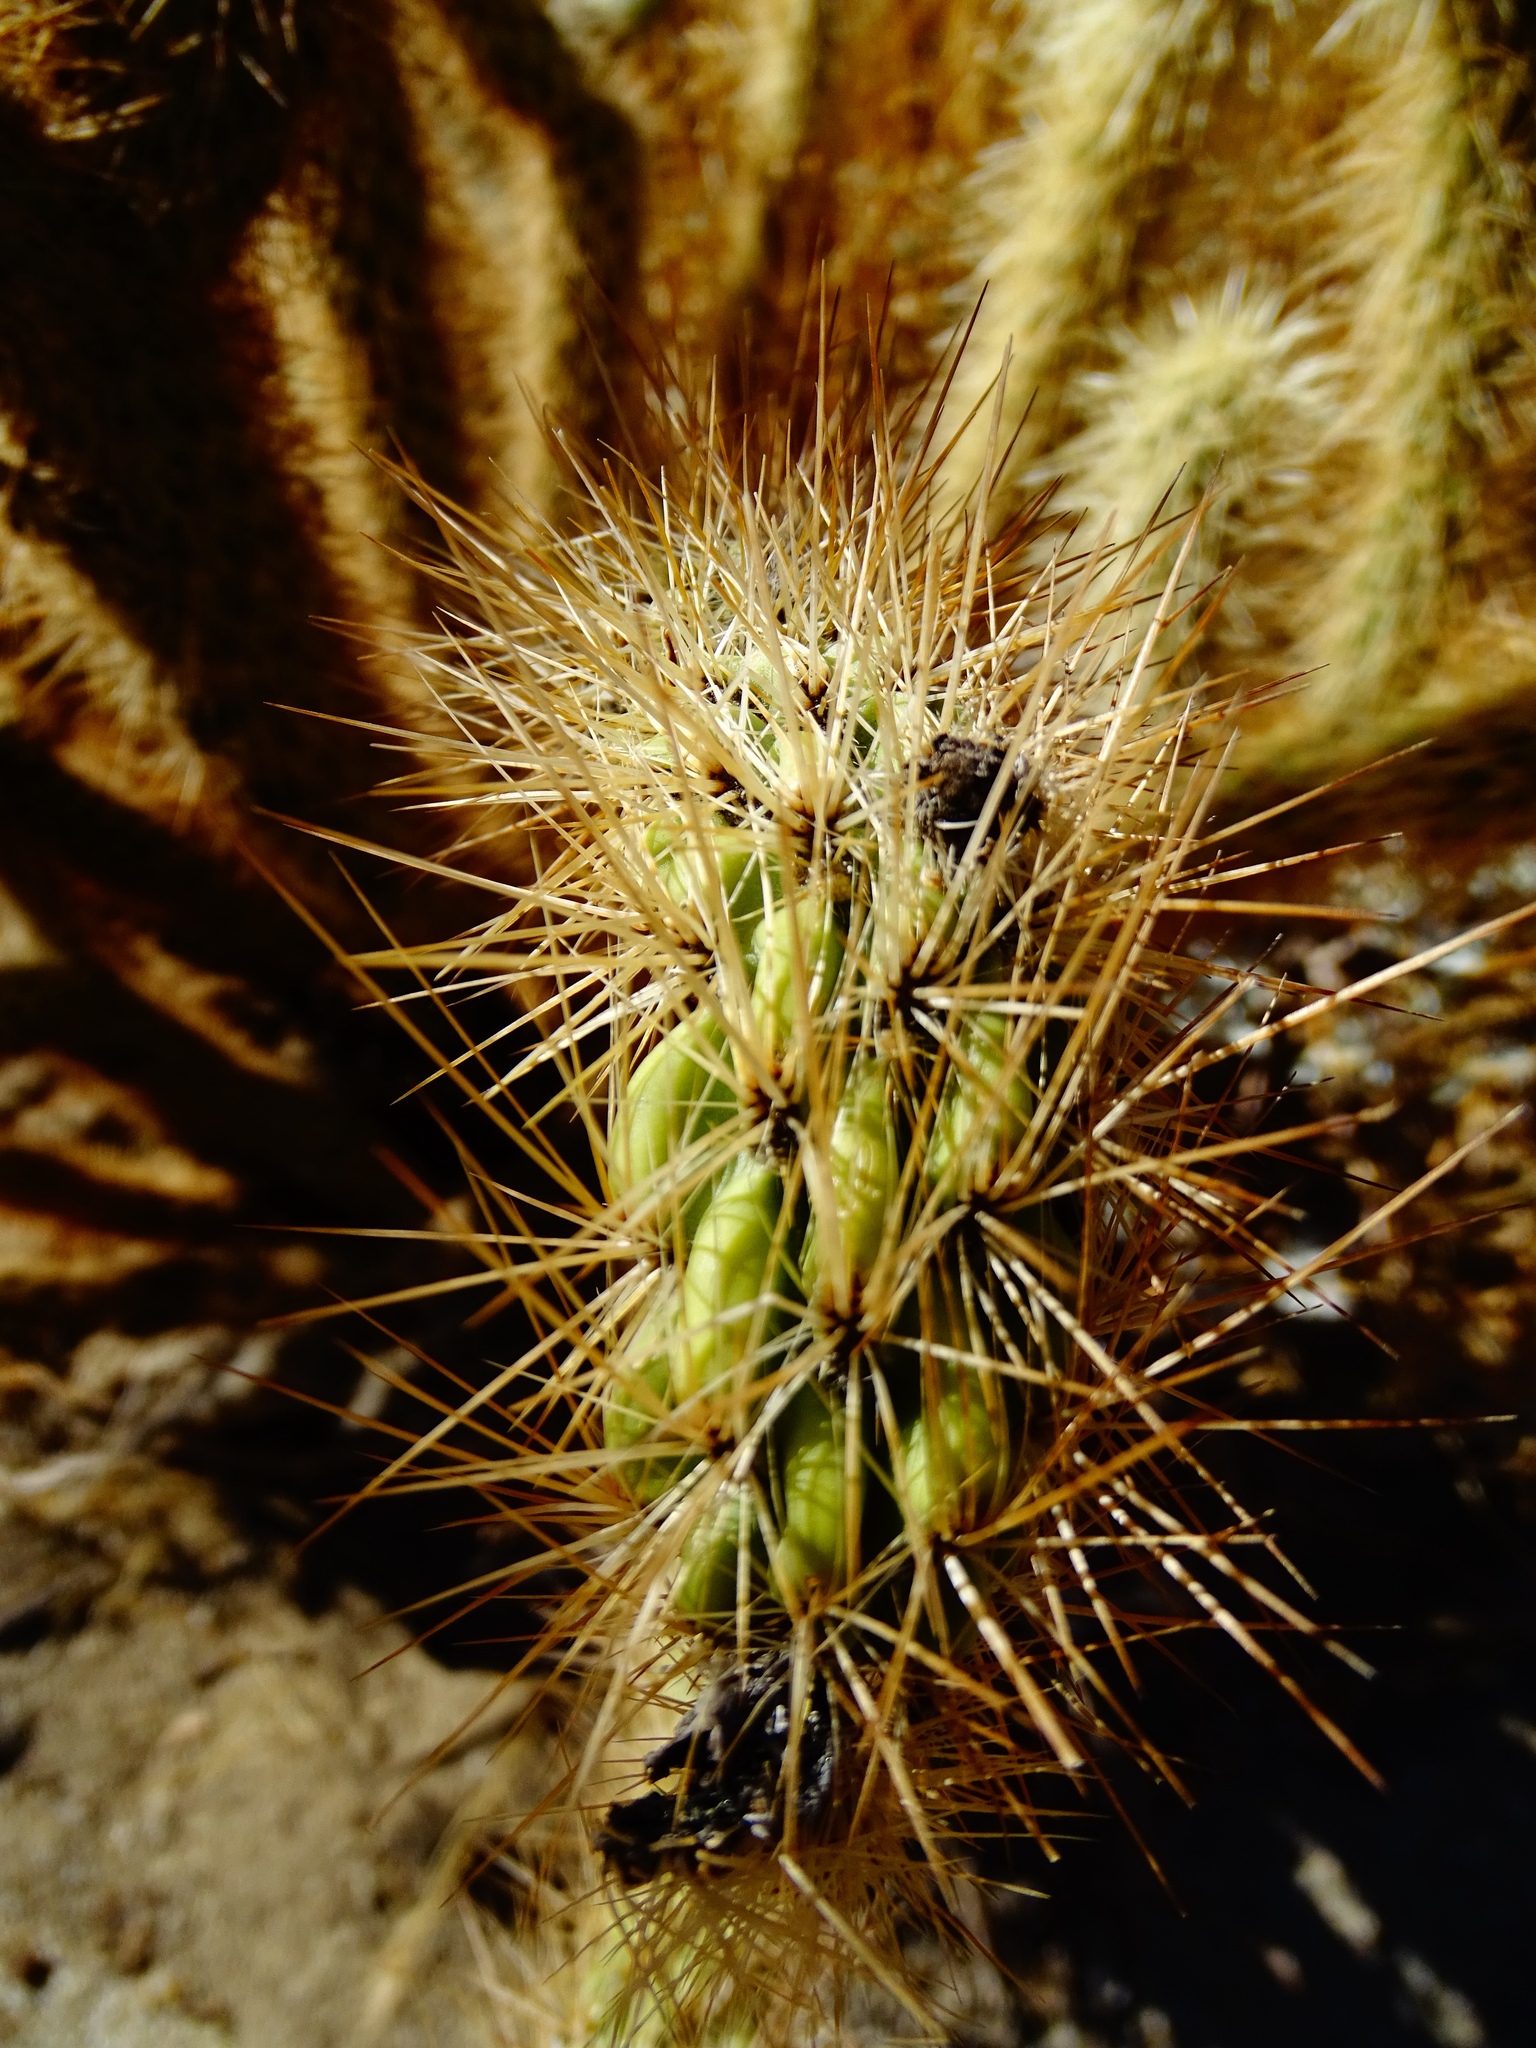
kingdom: Plantae
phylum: Tracheophyta
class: Magnoliopsida
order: Caryophyllales
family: Cactaceae
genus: Cylindropuntia
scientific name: Cylindropuntia ganderi
